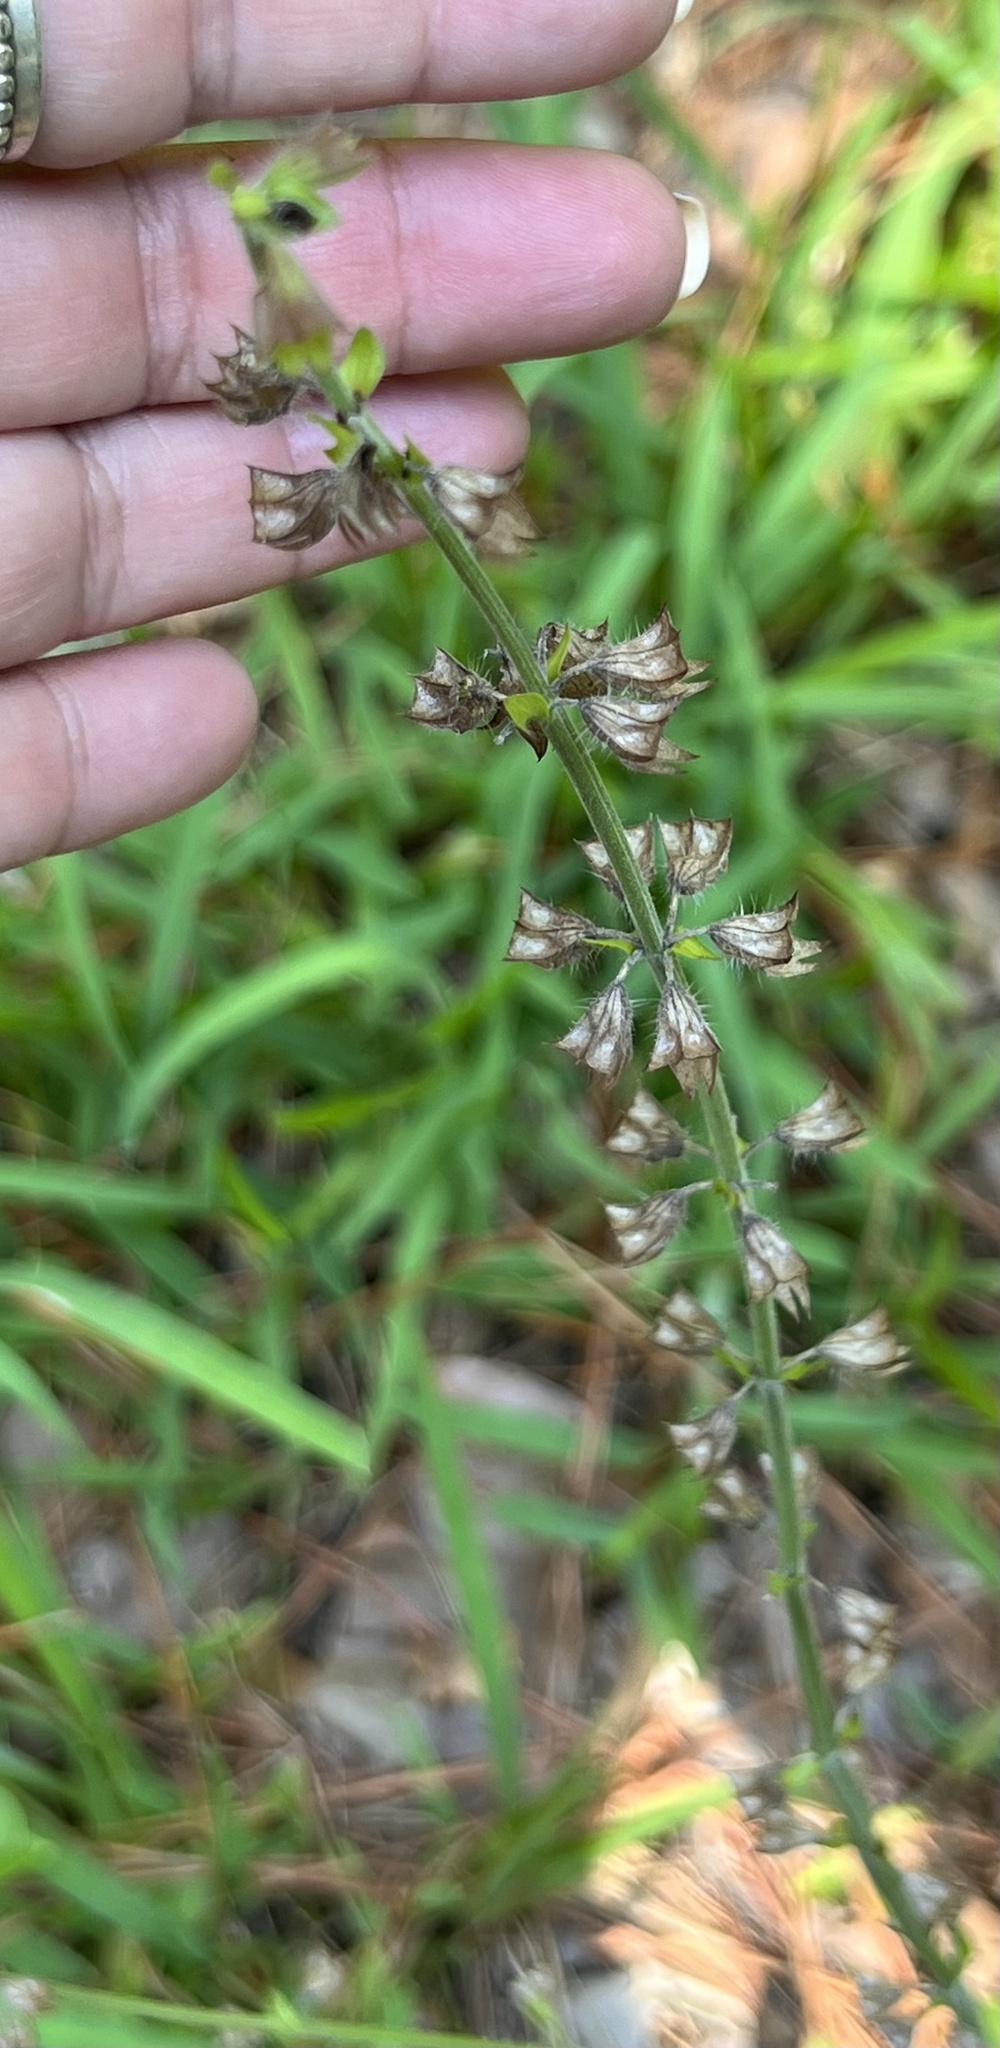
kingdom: Plantae
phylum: Tracheophyta
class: Magnoliopsida
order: Lamiales
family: Lamiaceae
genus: Salvia
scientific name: Salvia lyrata
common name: Cancerweed
